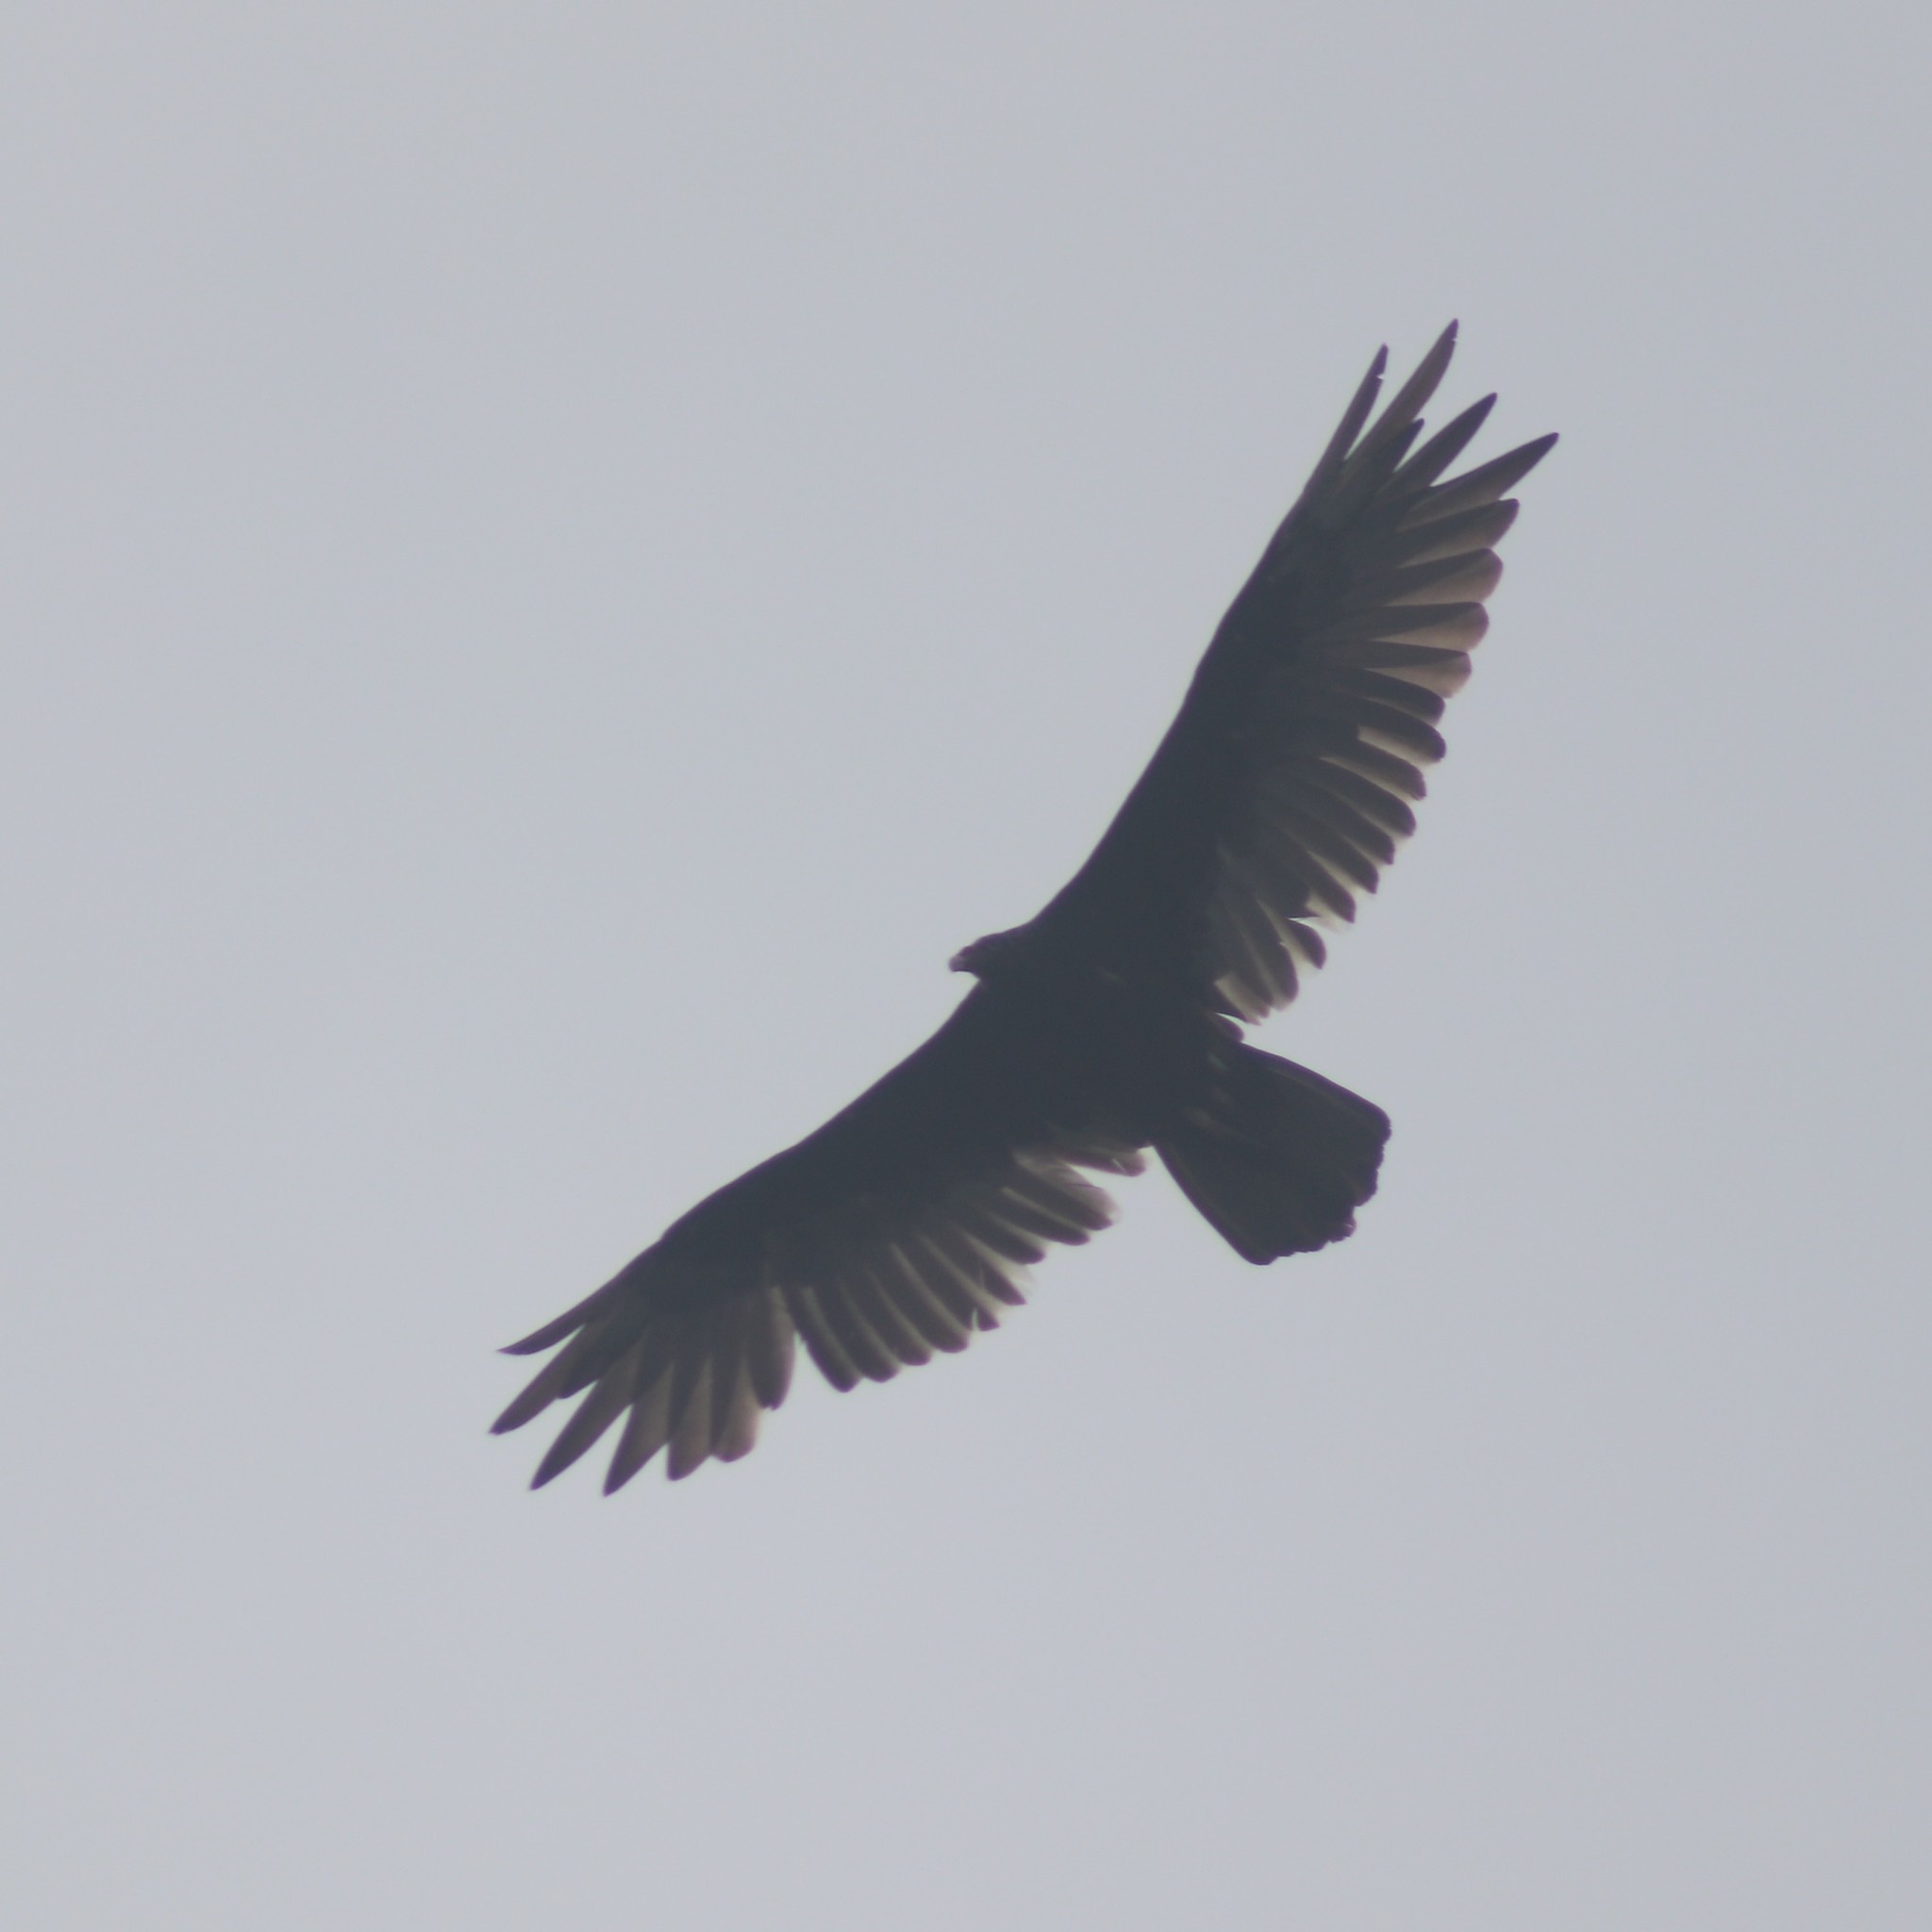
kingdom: Animalia
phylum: Chordata
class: Aves
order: Accipitriformes
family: Cathartidae
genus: Cathartes
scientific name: Cathartes aura
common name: Turkey vulture
